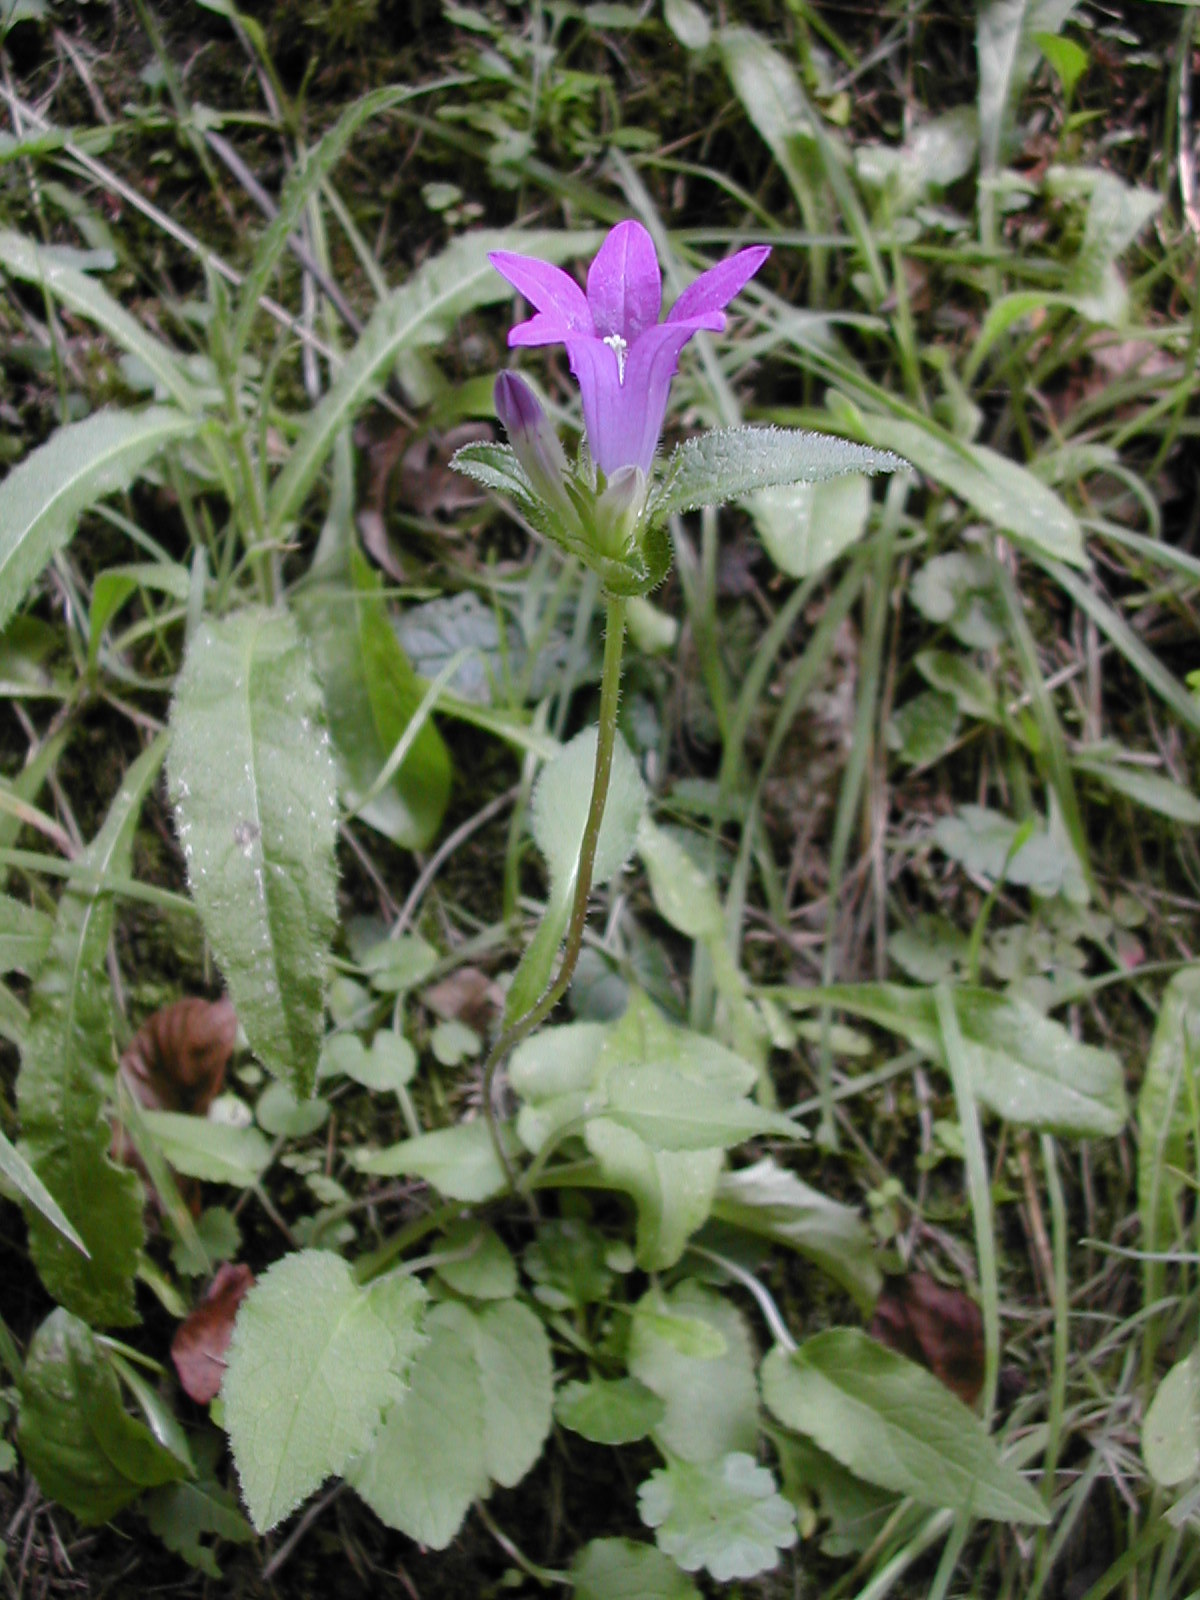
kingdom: Plantae
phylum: Tracheophyta
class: Magnoliopsida
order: Asterales
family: Campanulaceae
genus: Campanula
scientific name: Campanula glomerata
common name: Clustered bellflower
